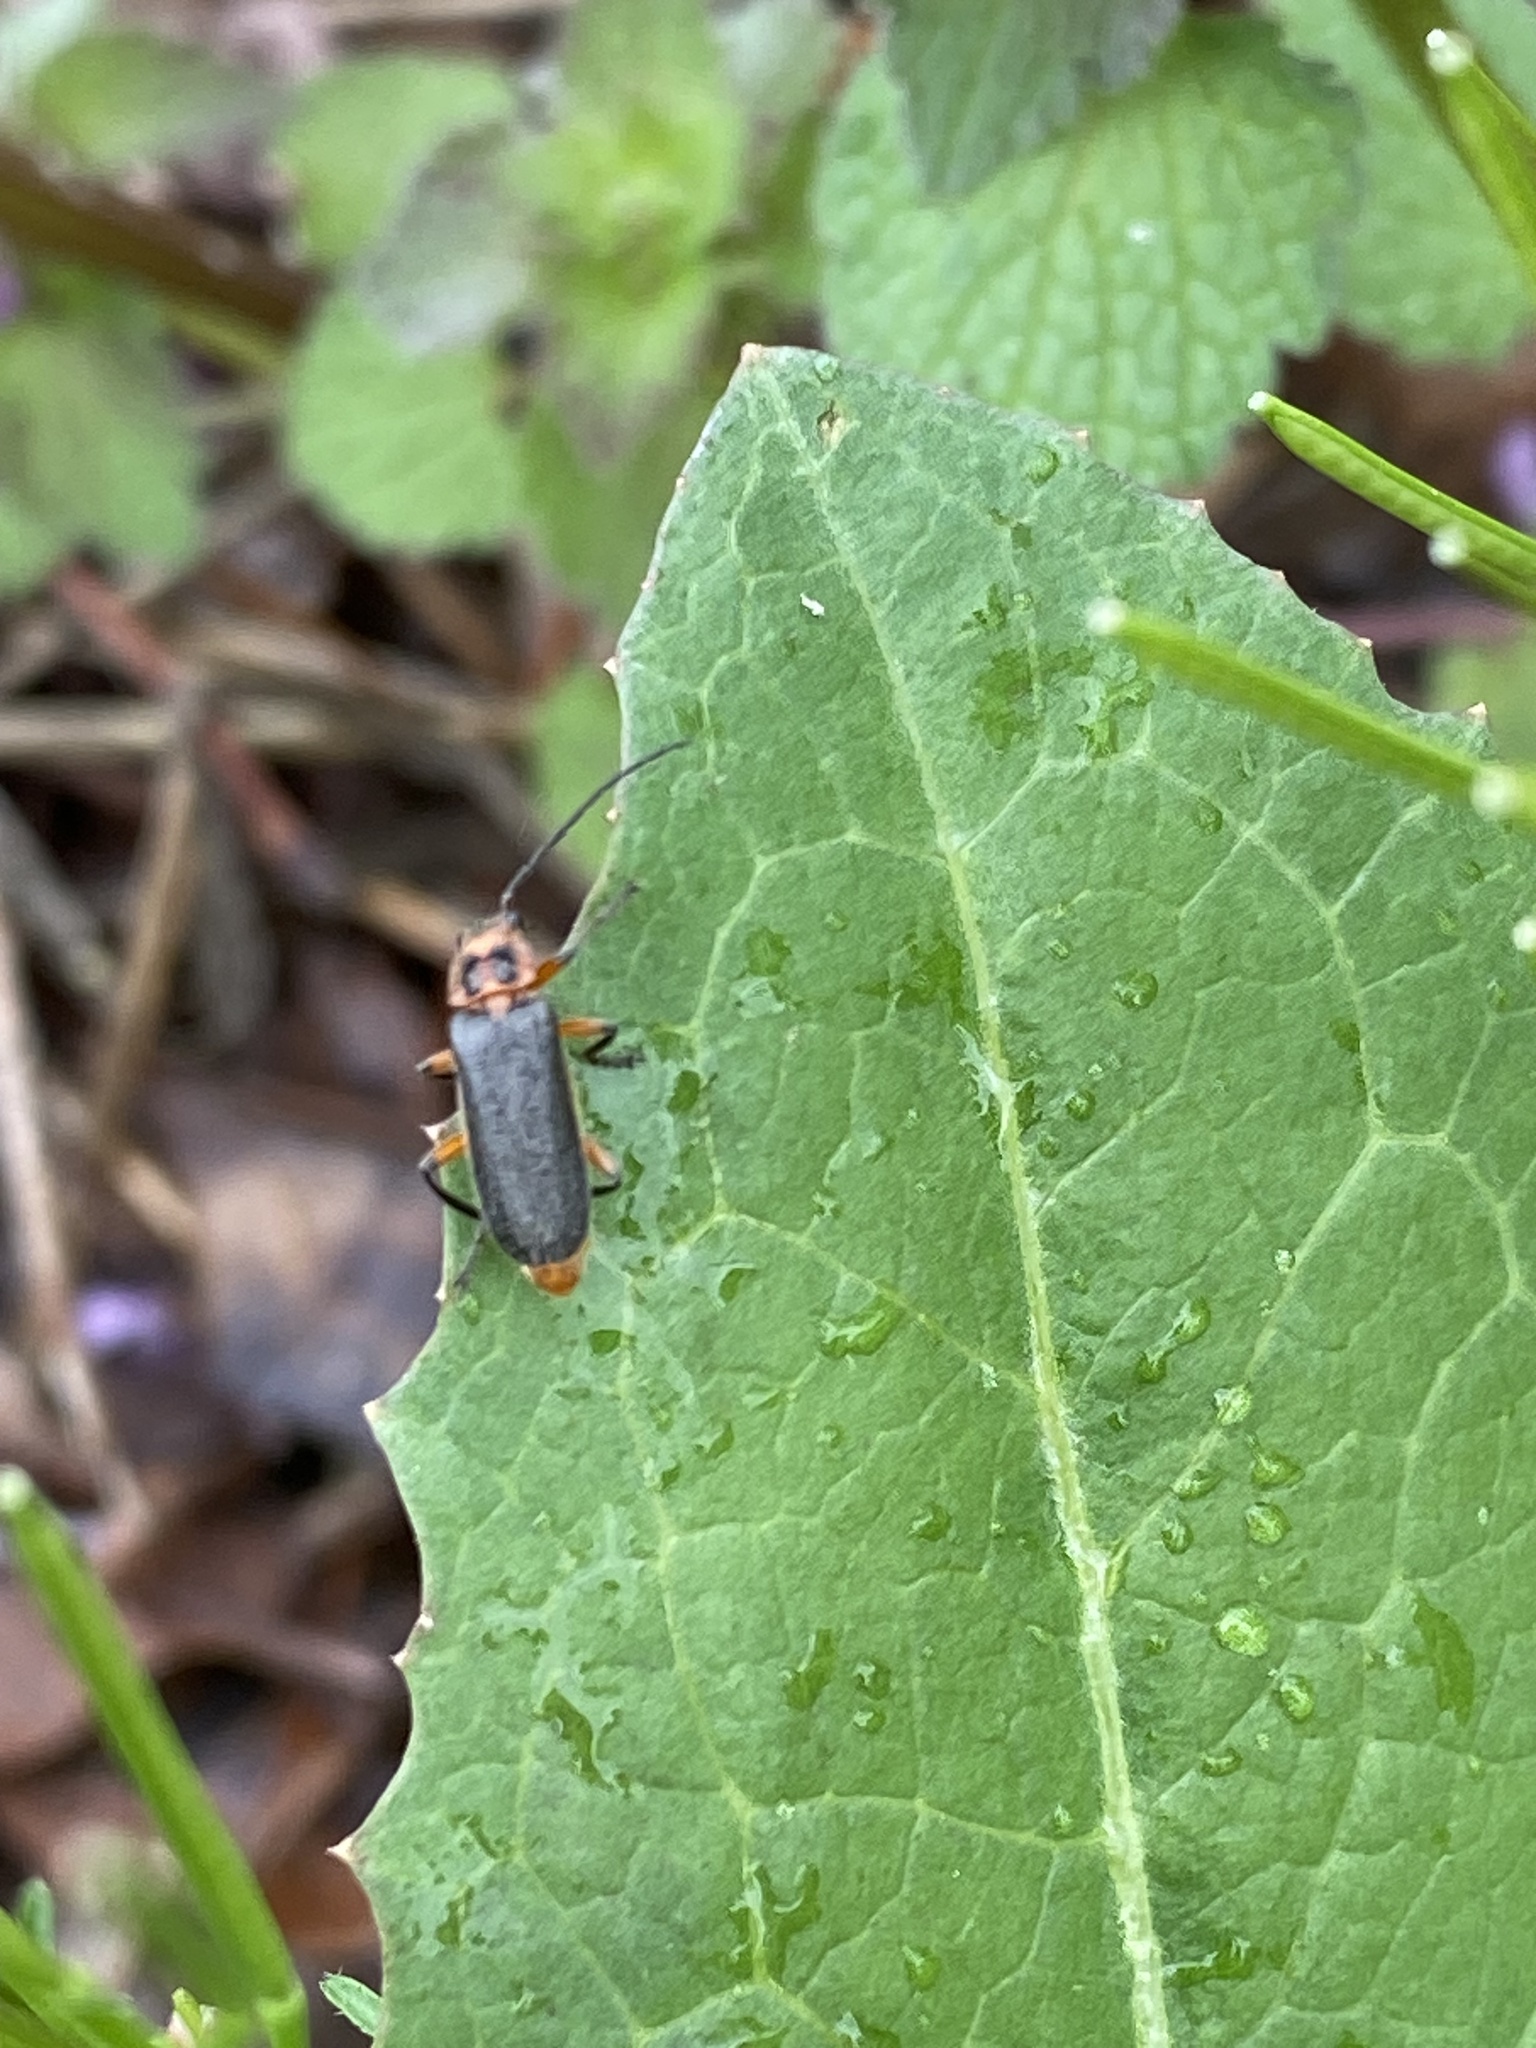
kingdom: Animalia
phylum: Arthropoda
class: Insecta
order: Coleoptera
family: Cantharidae
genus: Atalantycha
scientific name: Atalantycha bilineata
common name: Two-lined leatherwing
